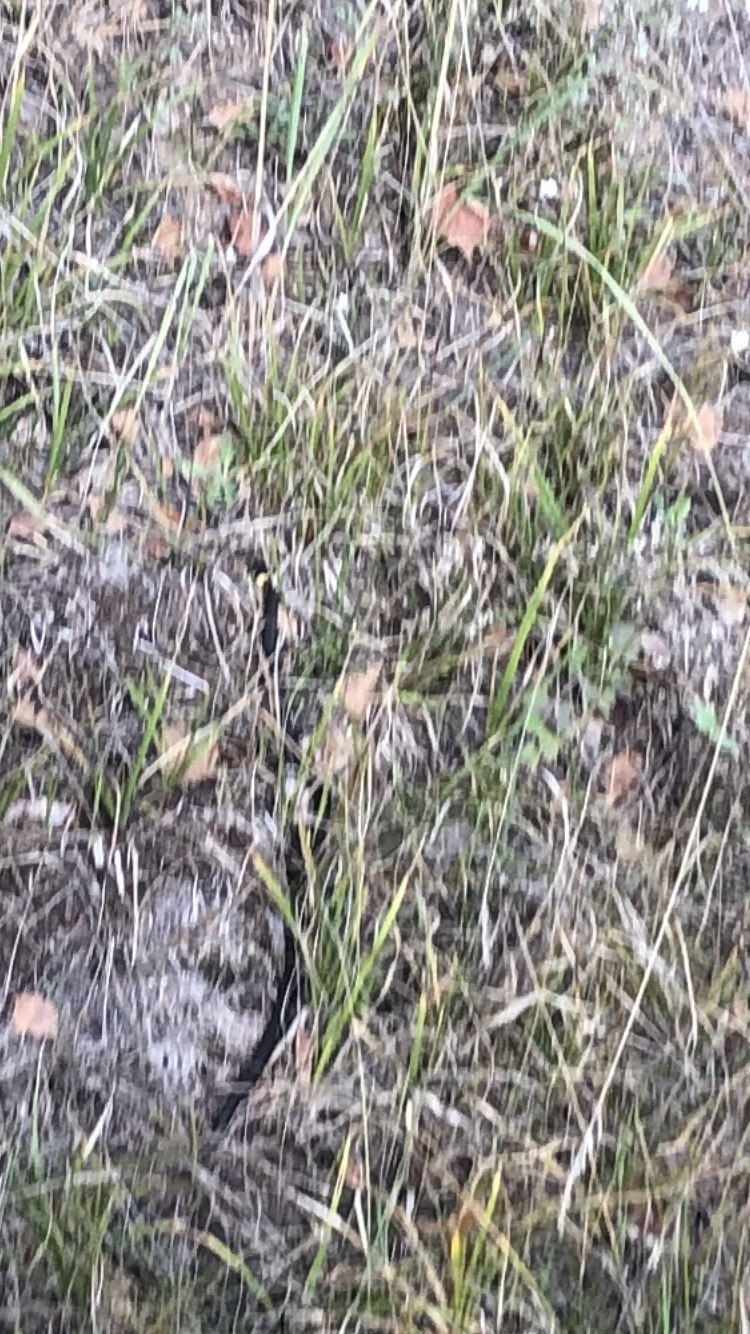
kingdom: Animalia
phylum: Chordata
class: Squamata
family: Colubridae
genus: Natrix
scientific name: Natrix natrix
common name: Grass snake
